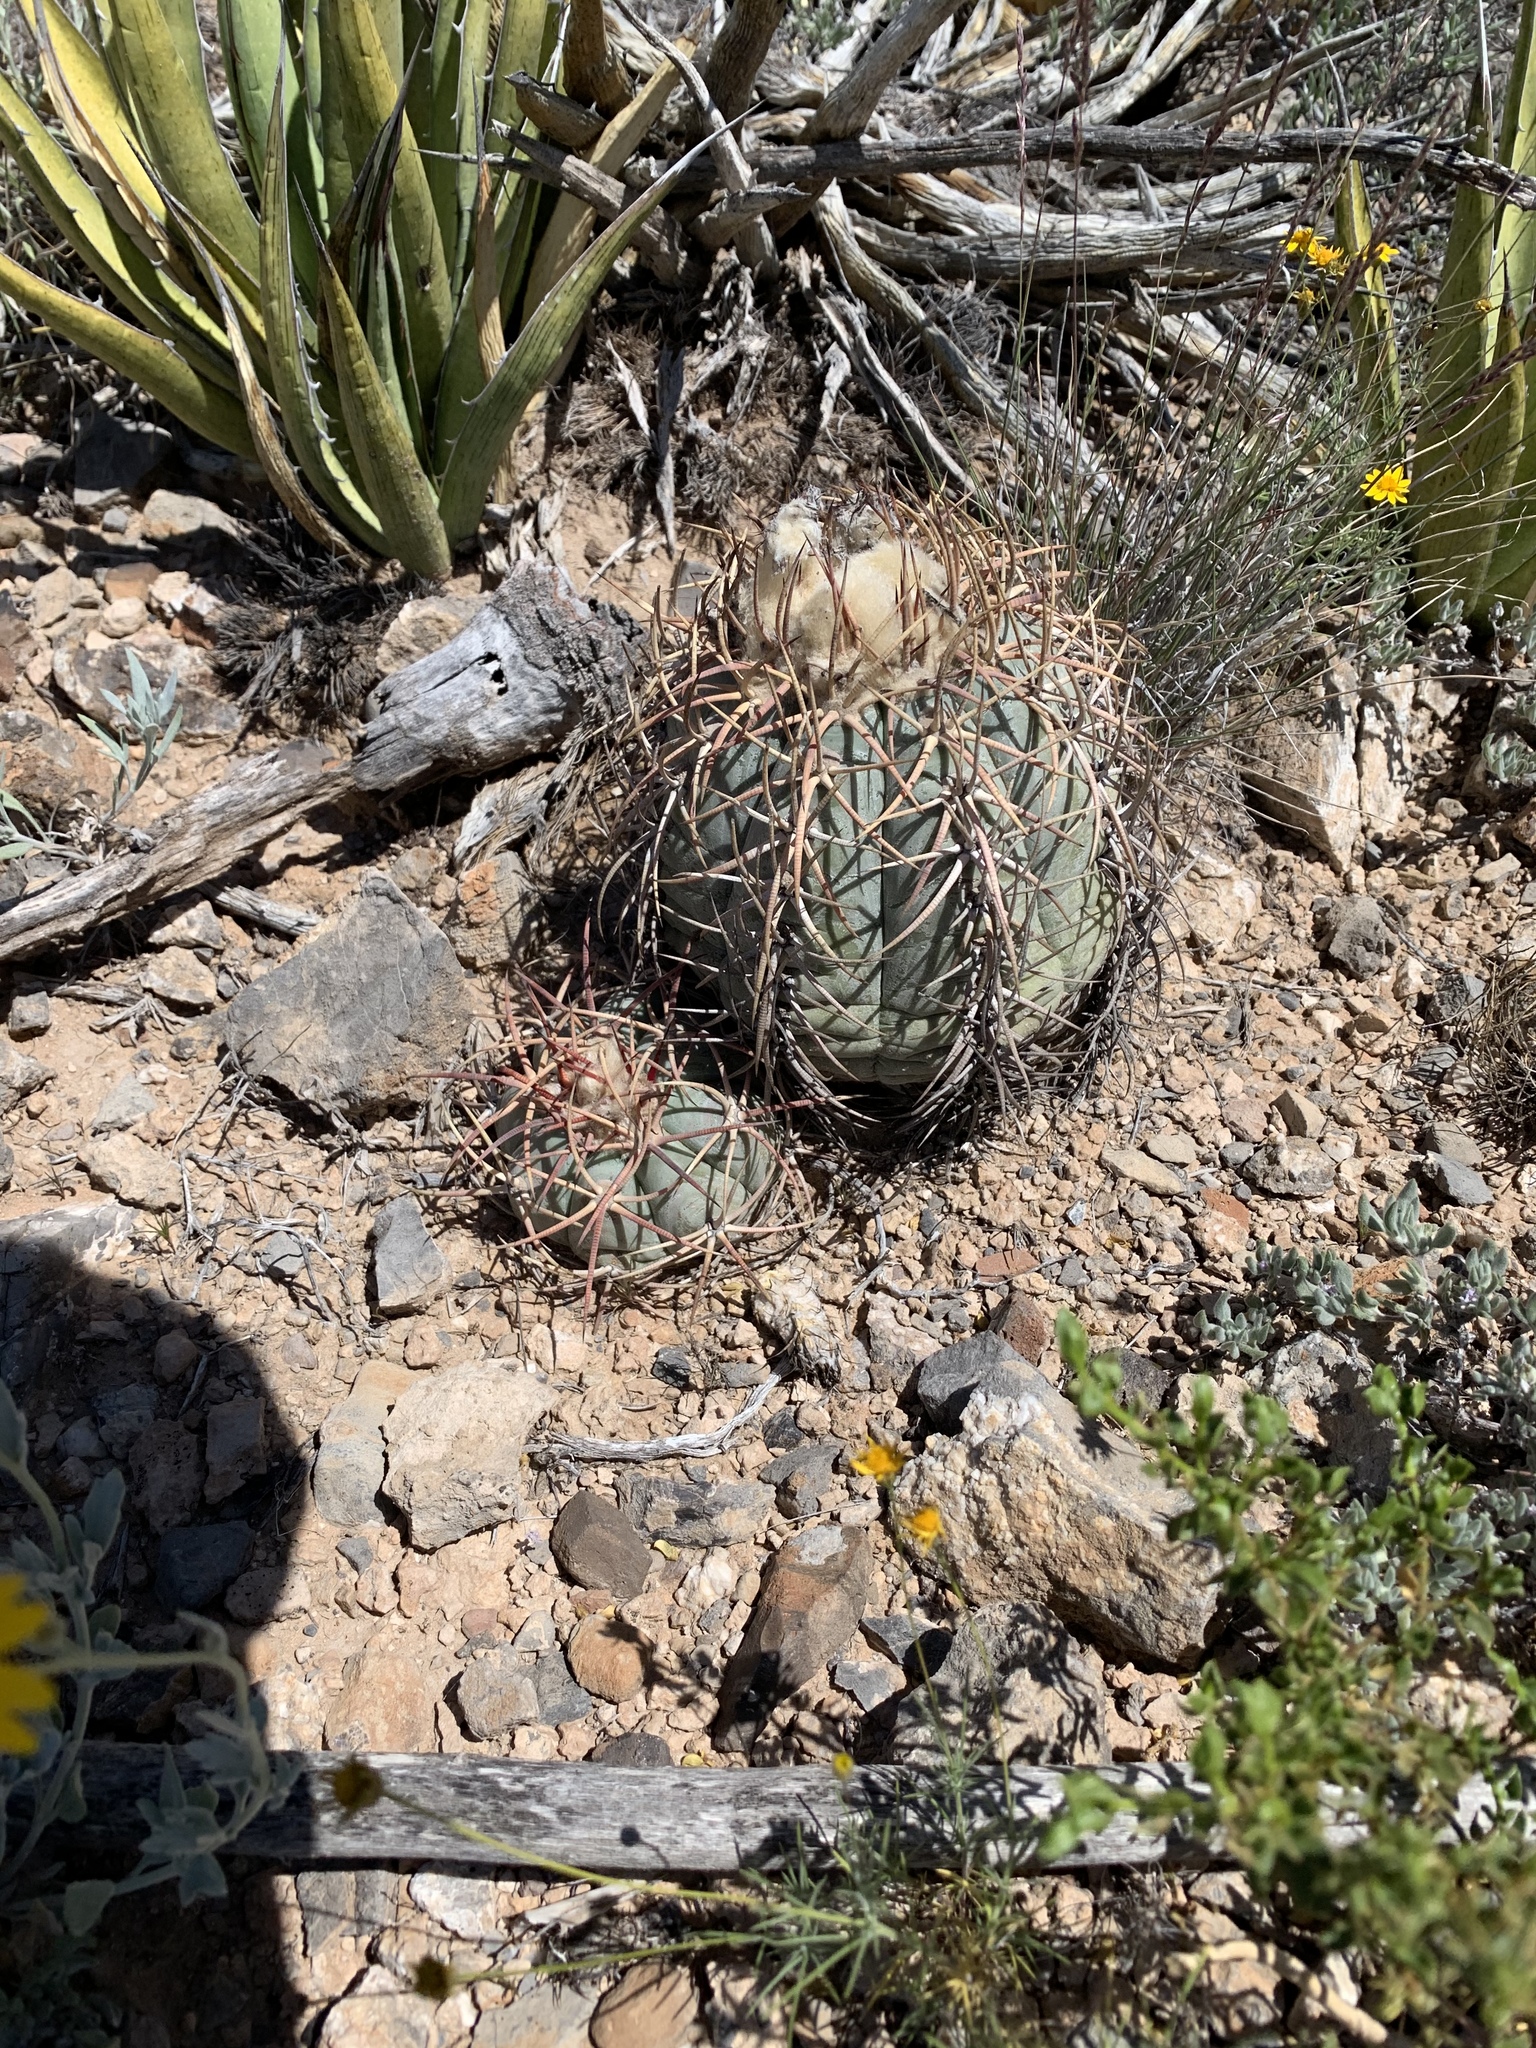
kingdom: Plantae
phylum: Tracheophyta
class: Magnoliopsida
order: Caryophyllales
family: Cactaceae
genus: Echinocactus
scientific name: Echinocactus horizonthalonius
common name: Devilshead
